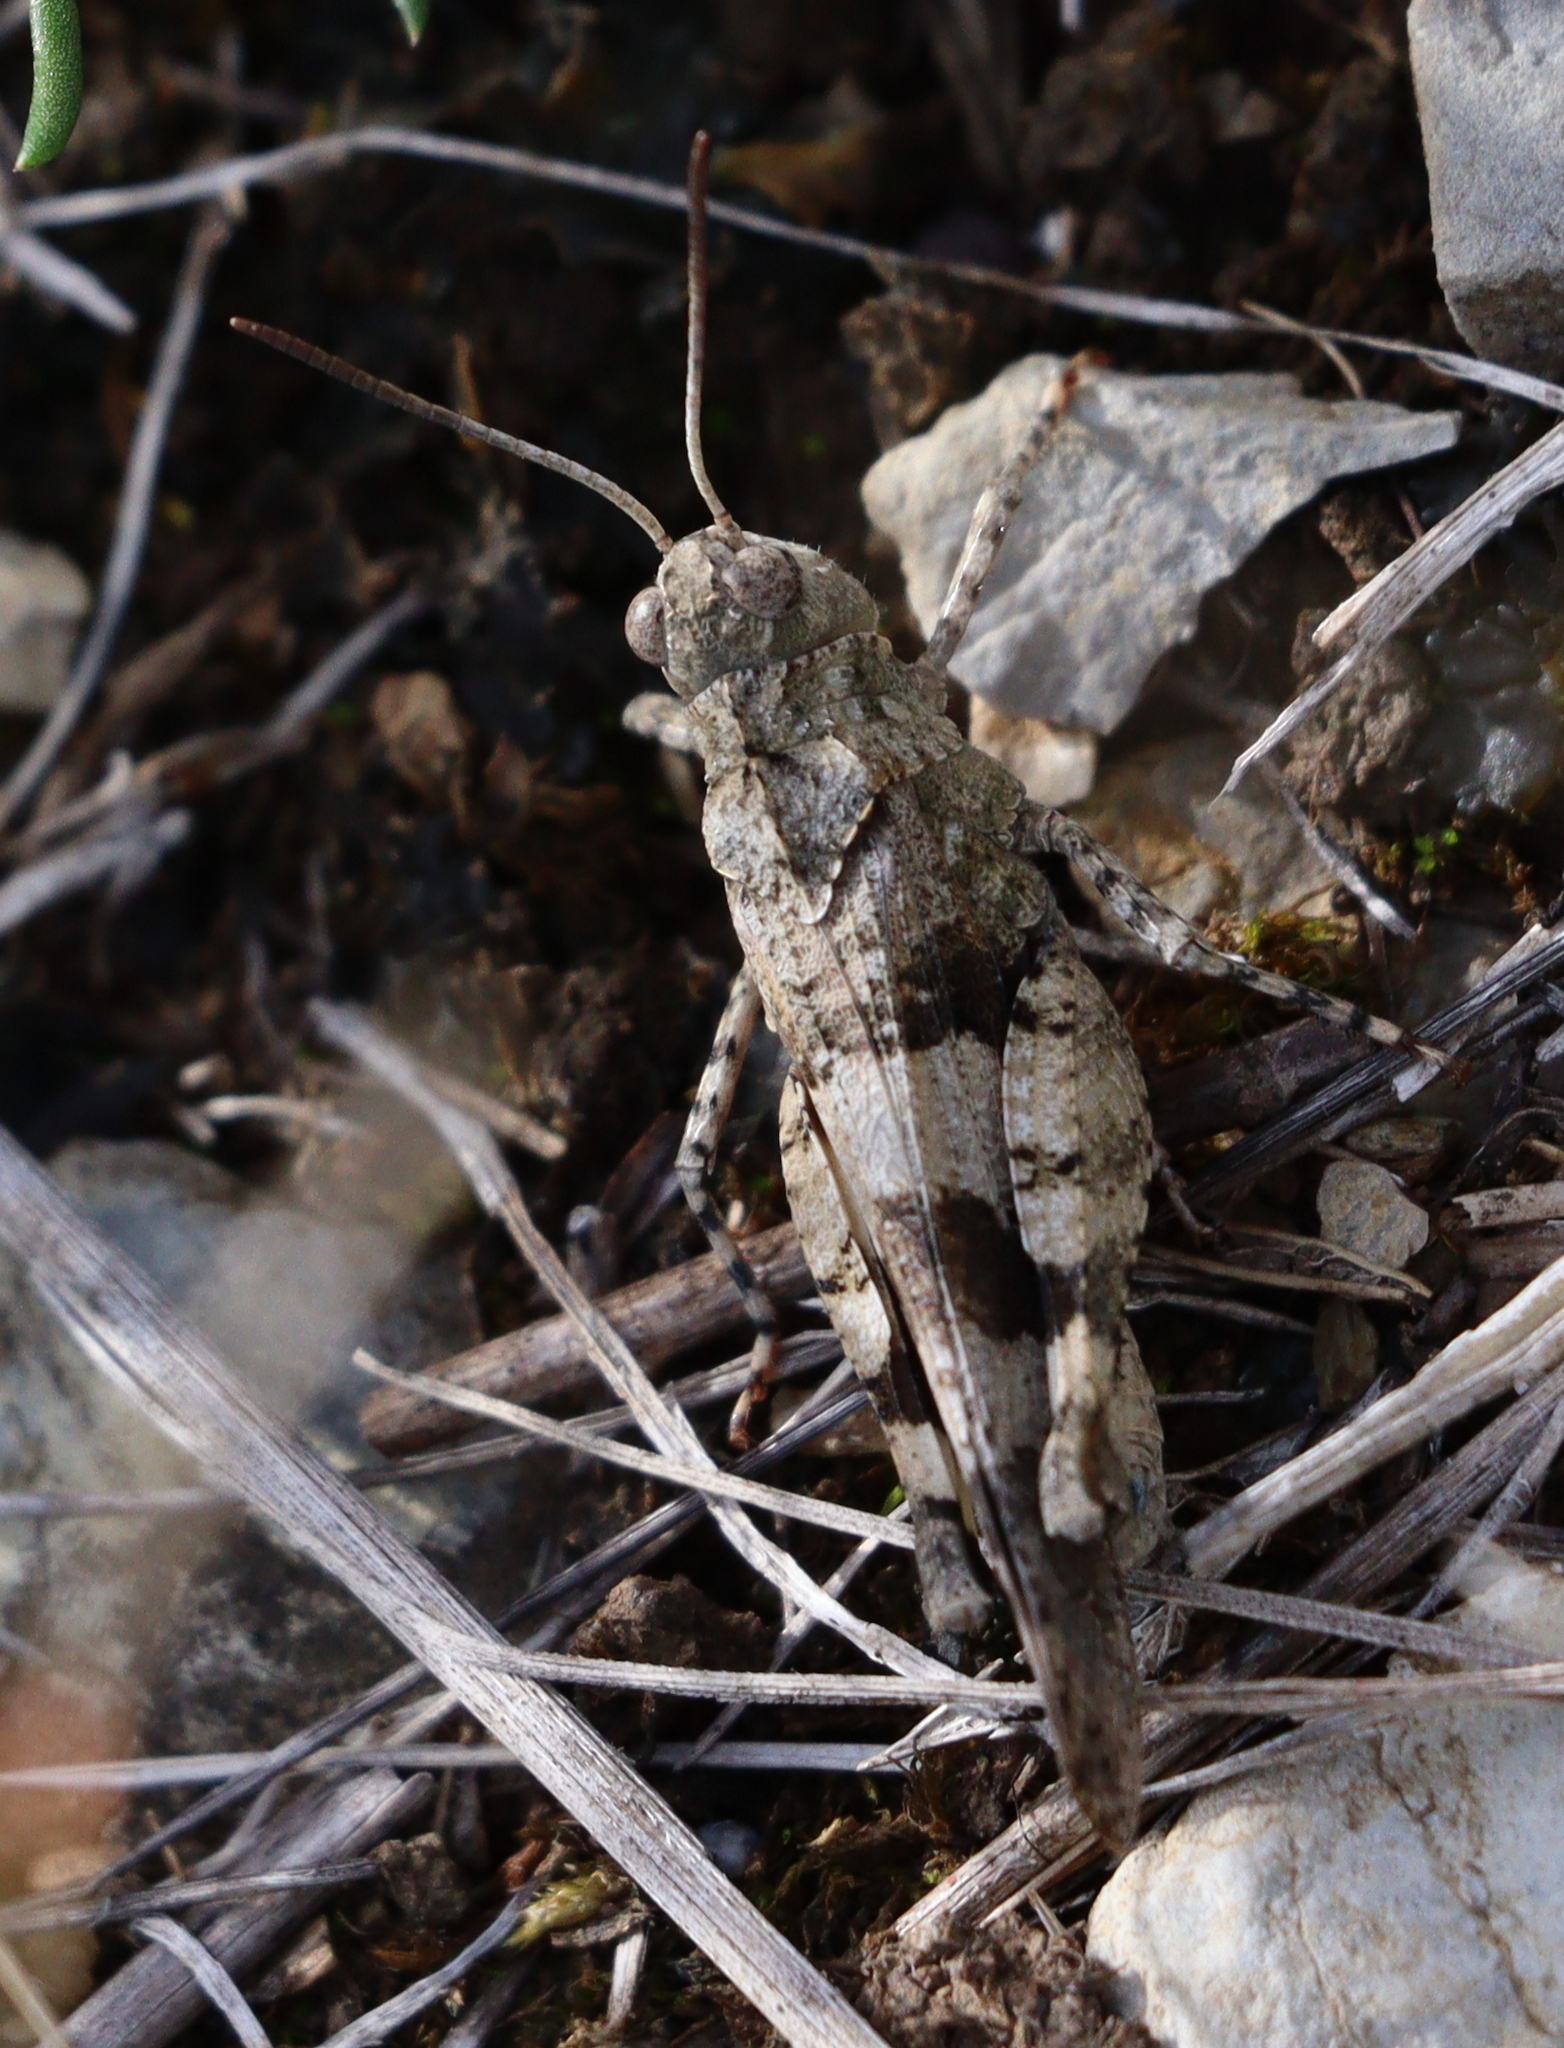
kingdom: Animalia
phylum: Arthropoda
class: Insecta
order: Orthoptera
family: Acrididae
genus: Oedipoda
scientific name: Oedipoda caerulescens
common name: Blue-winged grasshopper
